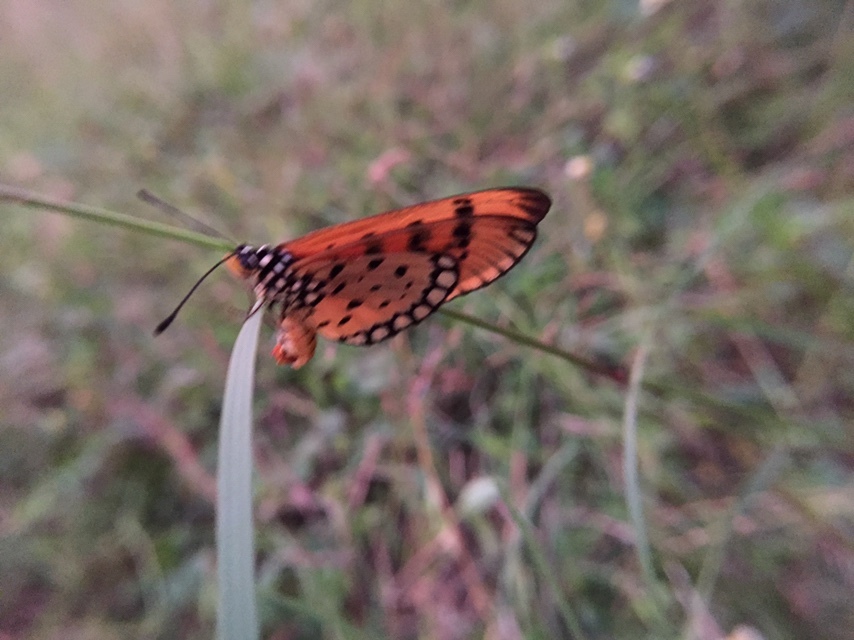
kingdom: Animalia
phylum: Arthropoda
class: Insecta
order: Lepidoptera
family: Nymphalidae
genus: Acraea
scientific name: Acraea terpsicore
